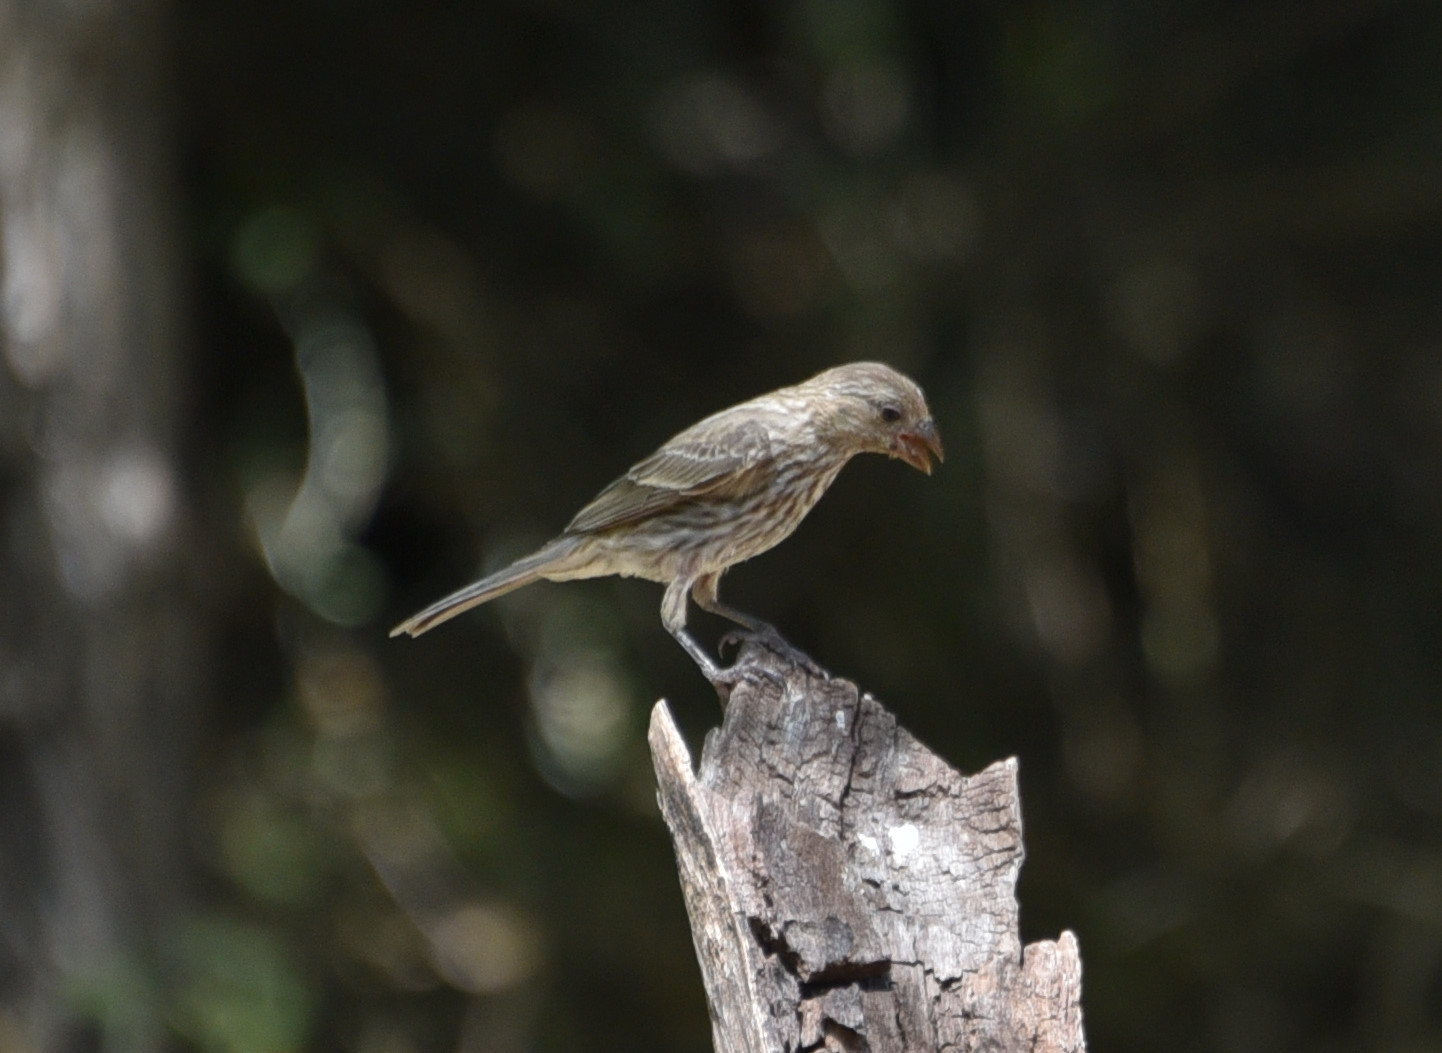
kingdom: Animalia
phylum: Chordata
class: Aves
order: Passeriformes
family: Fringillidae
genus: Haemorhous
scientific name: Haemorhous mexicanus
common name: House finch
